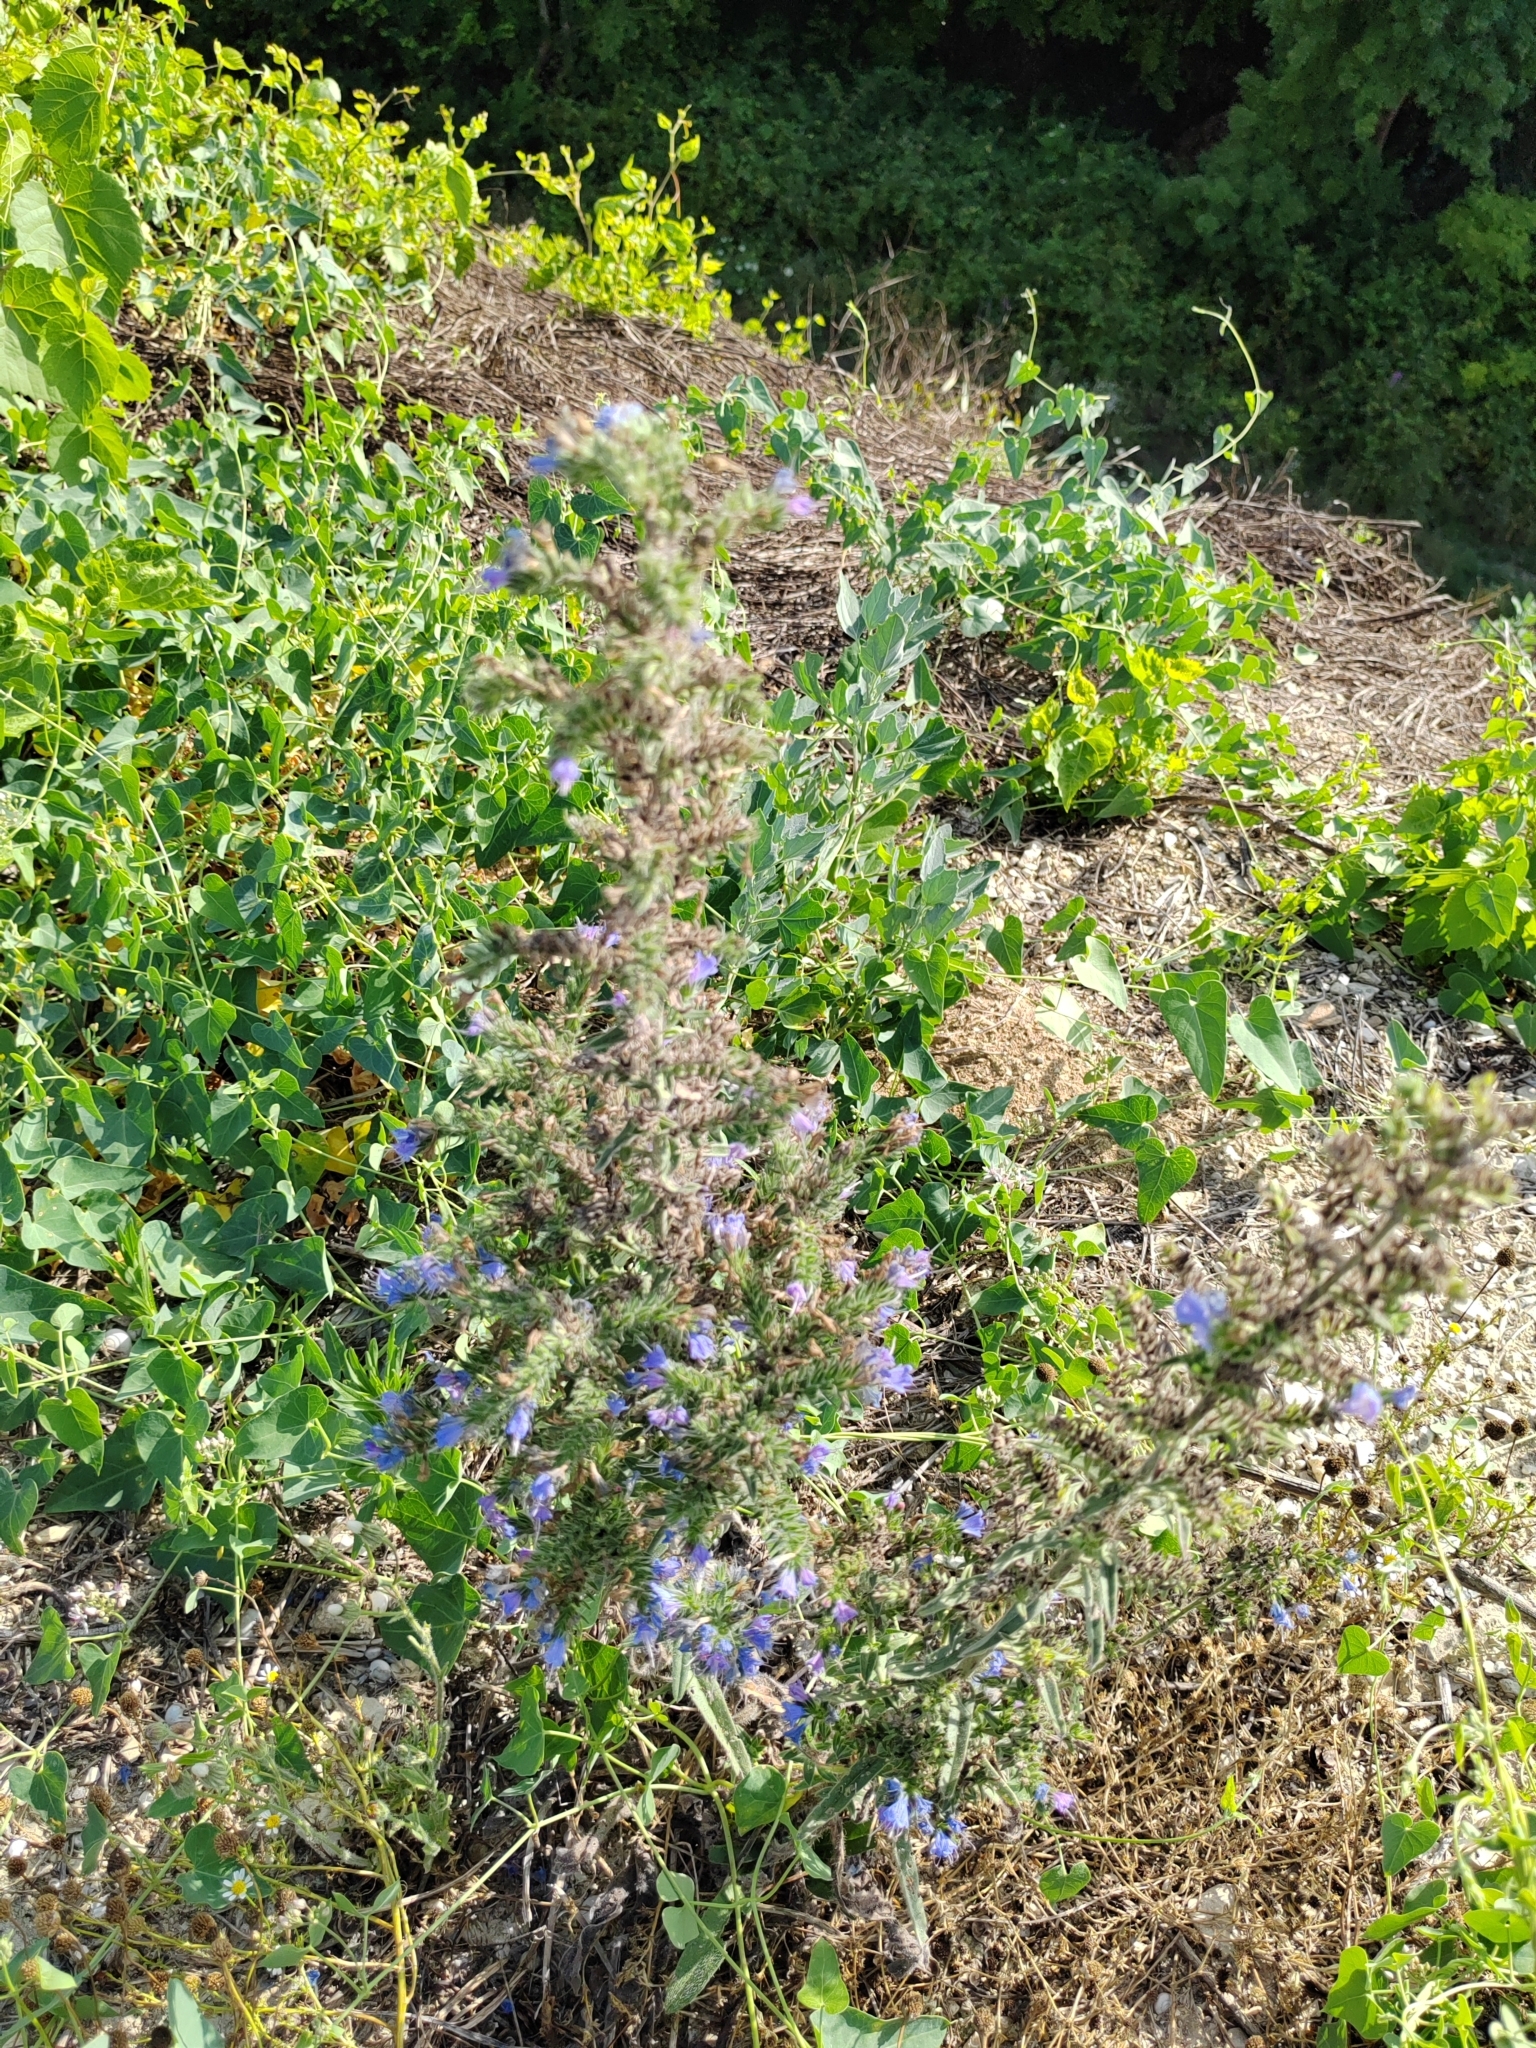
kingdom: Plantae
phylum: Tracheophyta
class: Magnoliopsida
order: Boraginales
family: Boraginaceae
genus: Echium
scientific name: Echium vulgare
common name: Common viper's bugloss
